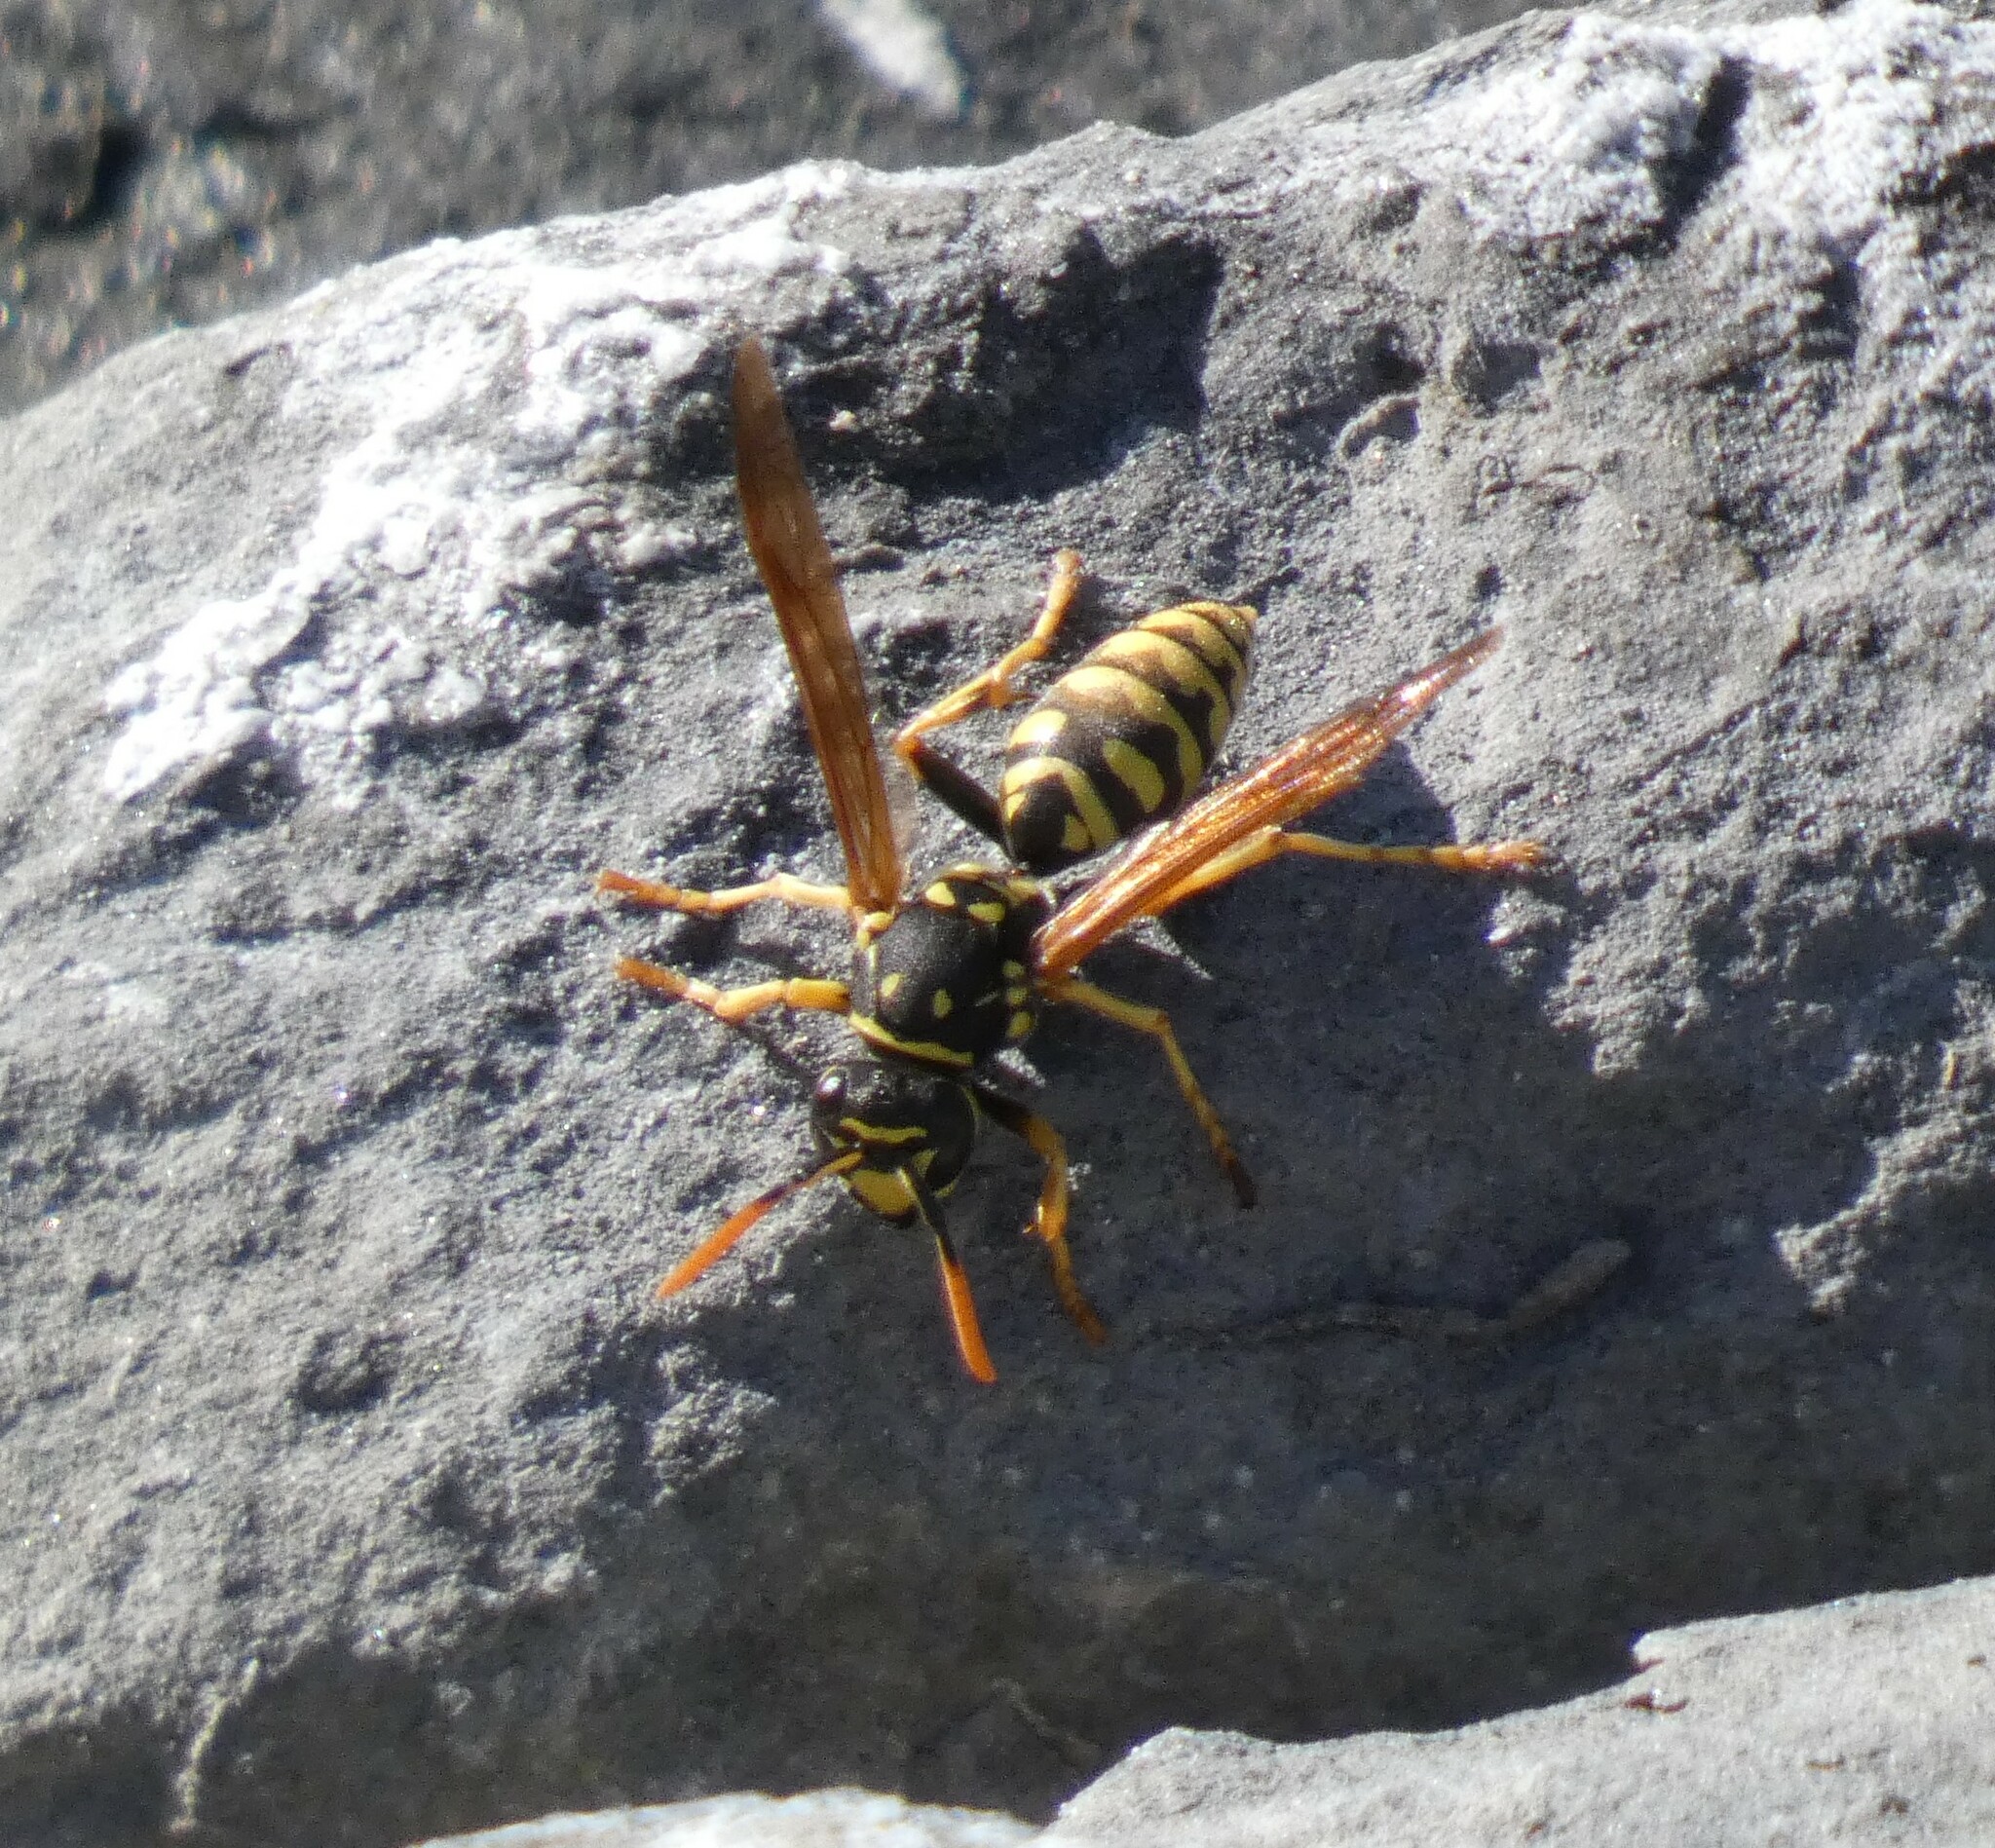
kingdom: Animalia
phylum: Arthropoda
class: Insecta
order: Hymenoptera
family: Eumenidae
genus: Polistes
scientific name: Polistes dominula
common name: Paper wasp
